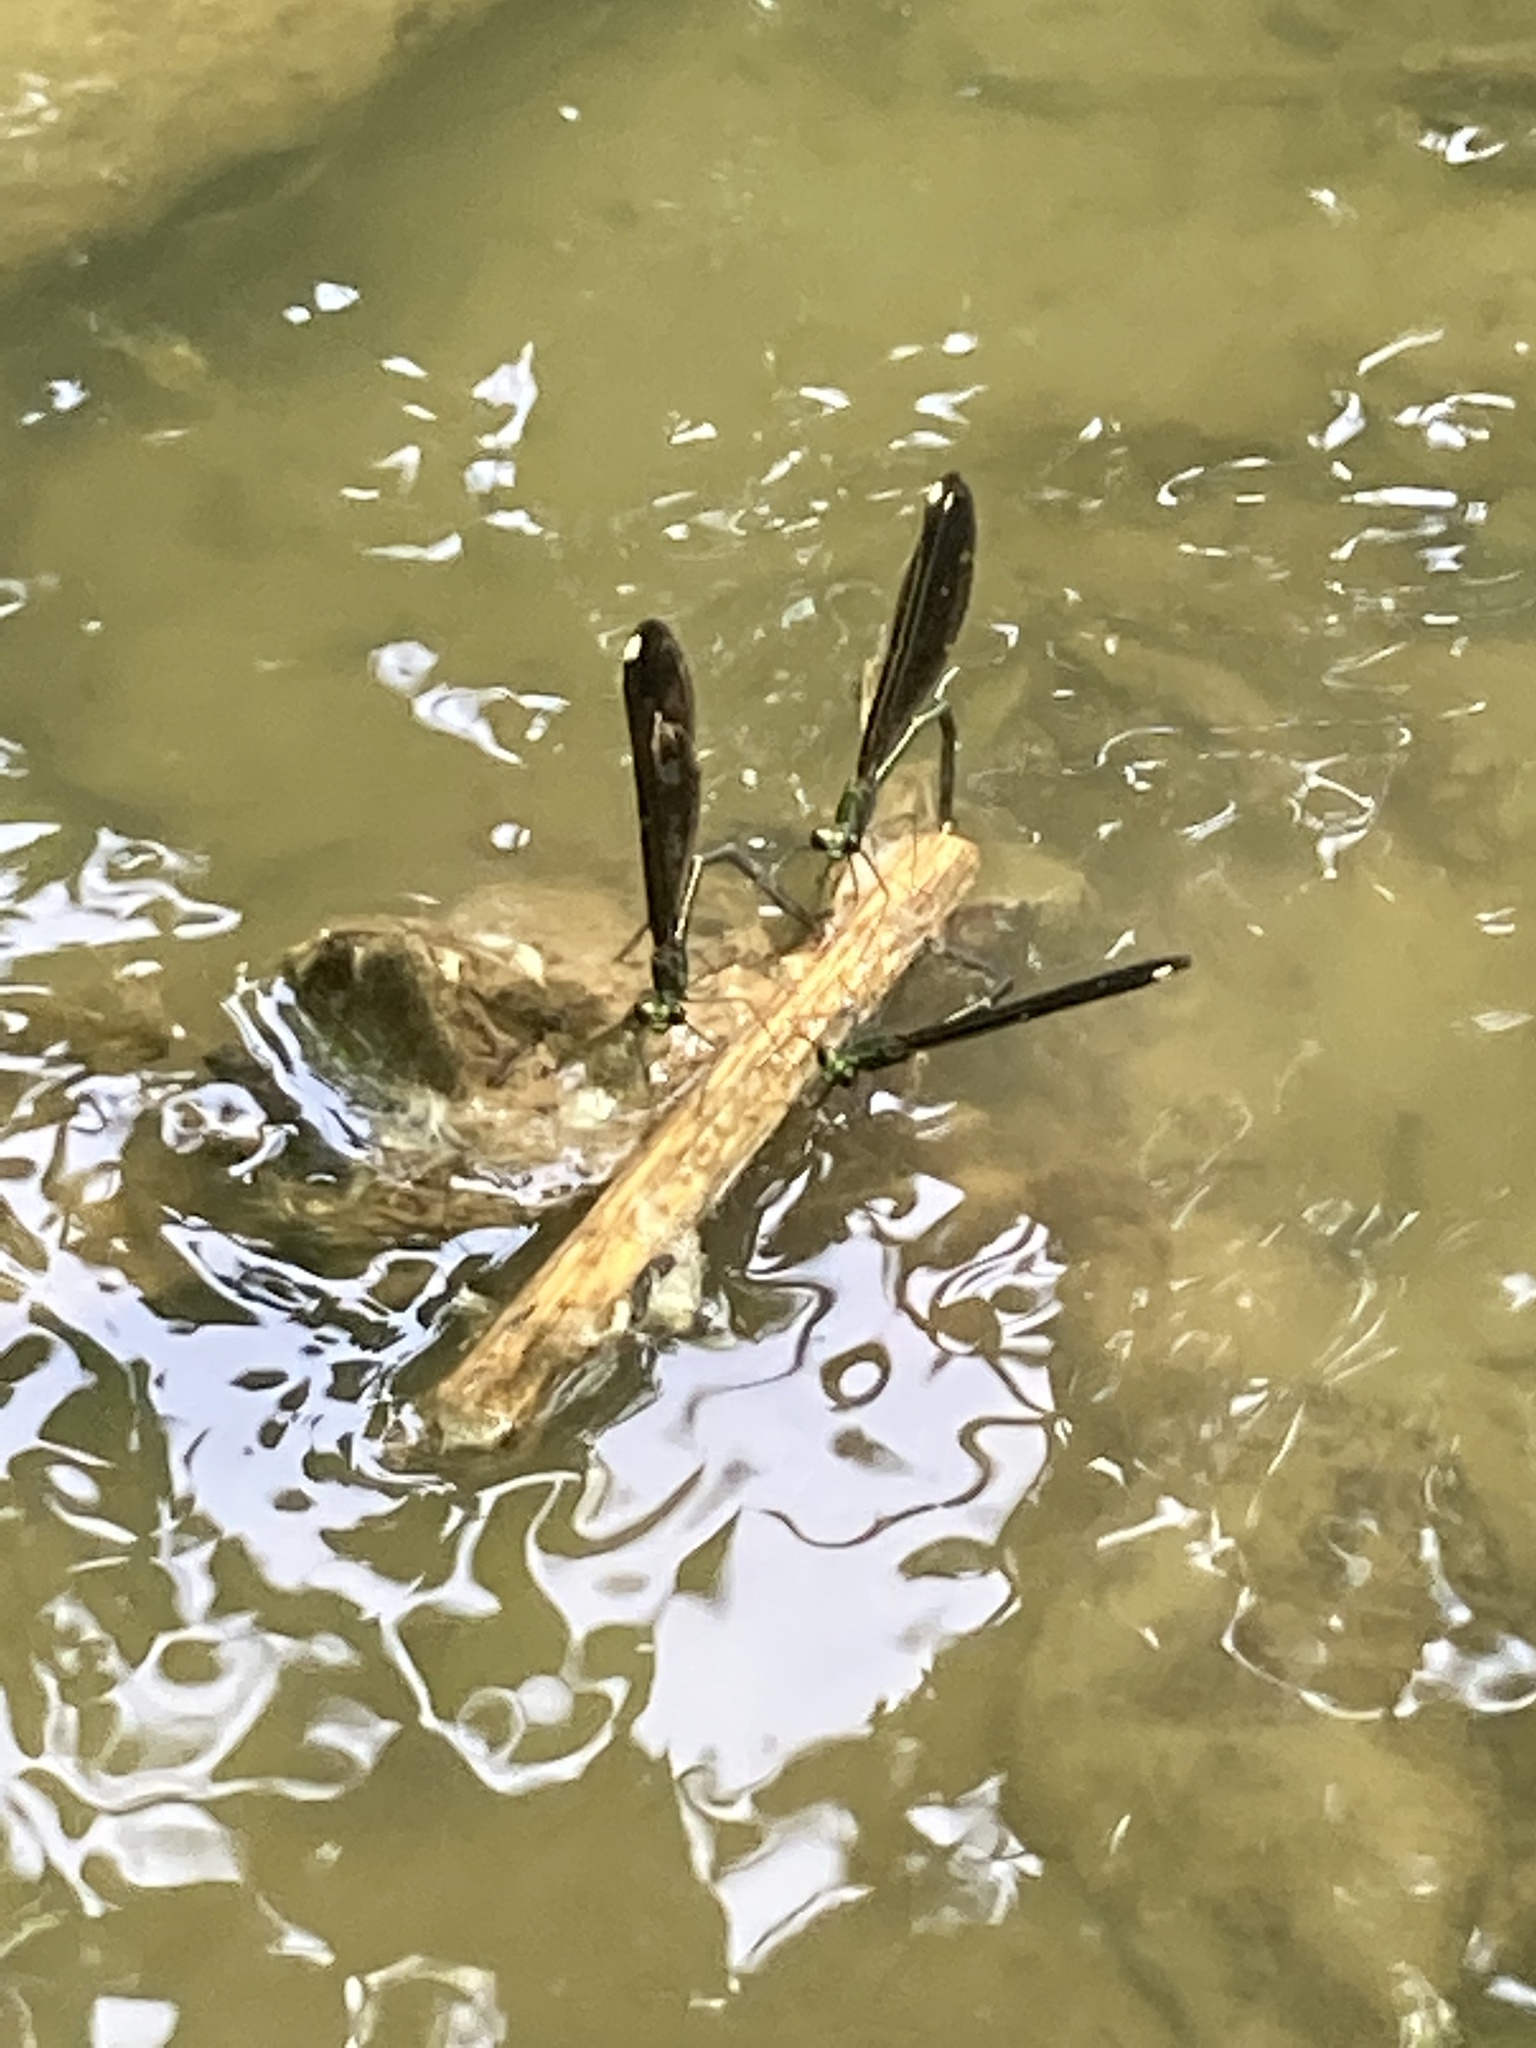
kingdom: Animalia
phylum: Arthropoda
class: Insecta
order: Odonata
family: Calopterygidae
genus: Calopteryx
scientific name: Calopteryx maculata
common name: Ebony jewelwing
